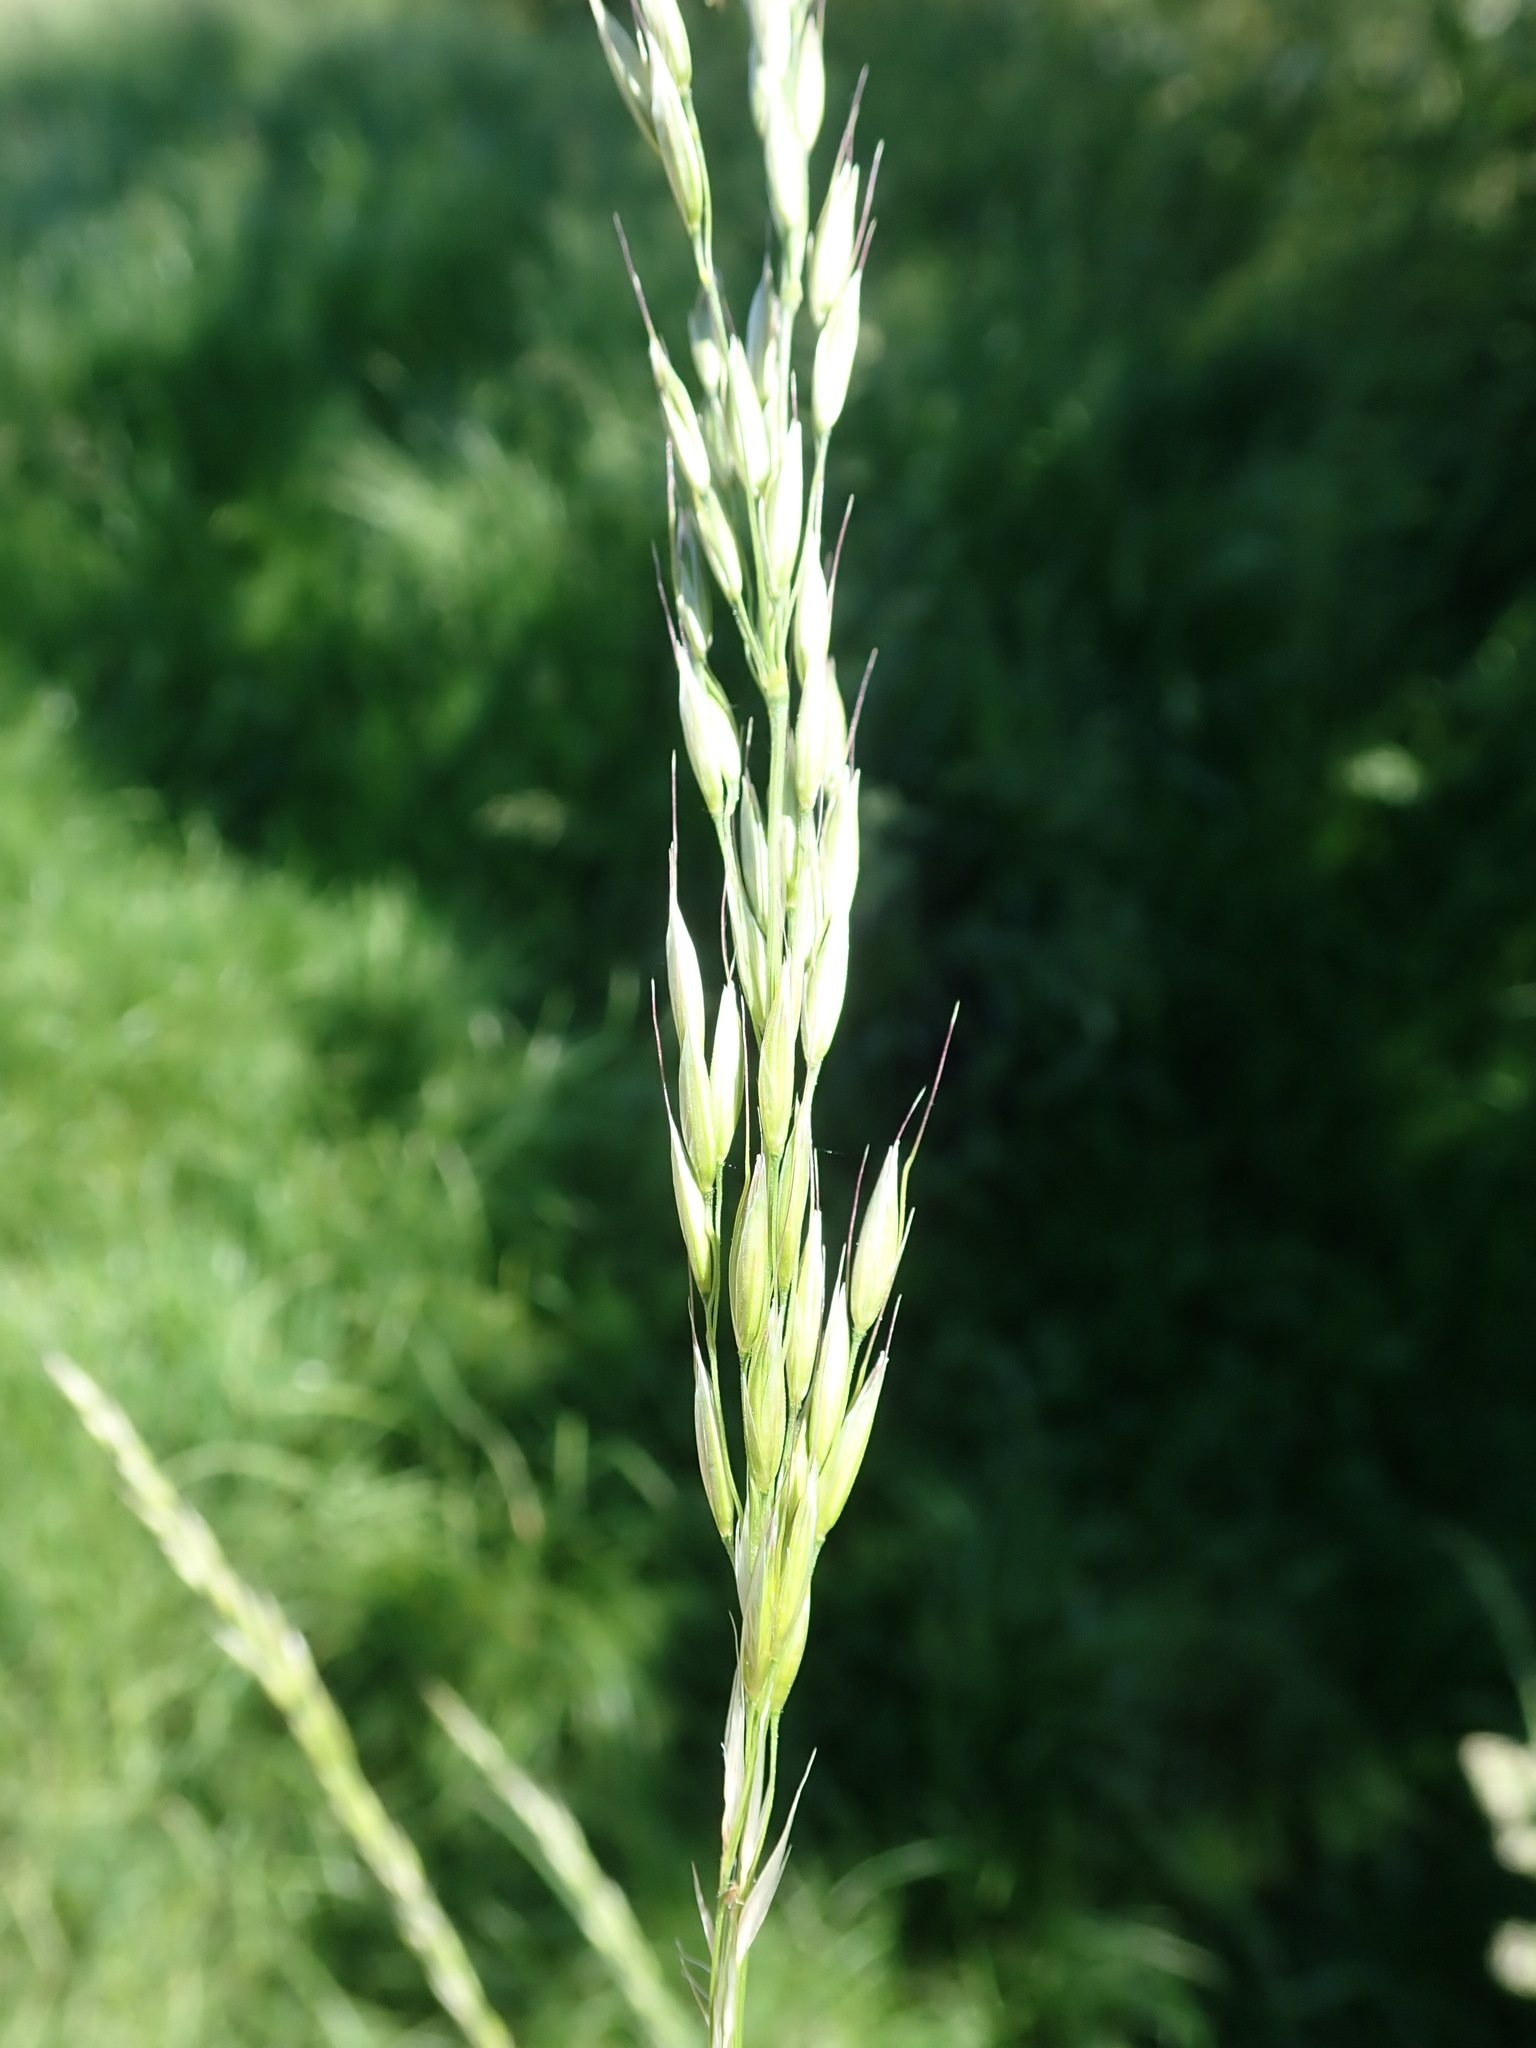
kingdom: Plantae
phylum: Tracheophyta
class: Liliopsida
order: Poales
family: Poaceae
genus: Arrhenatherum
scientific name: Arrhenatherum elatius
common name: Tall oatgrass
